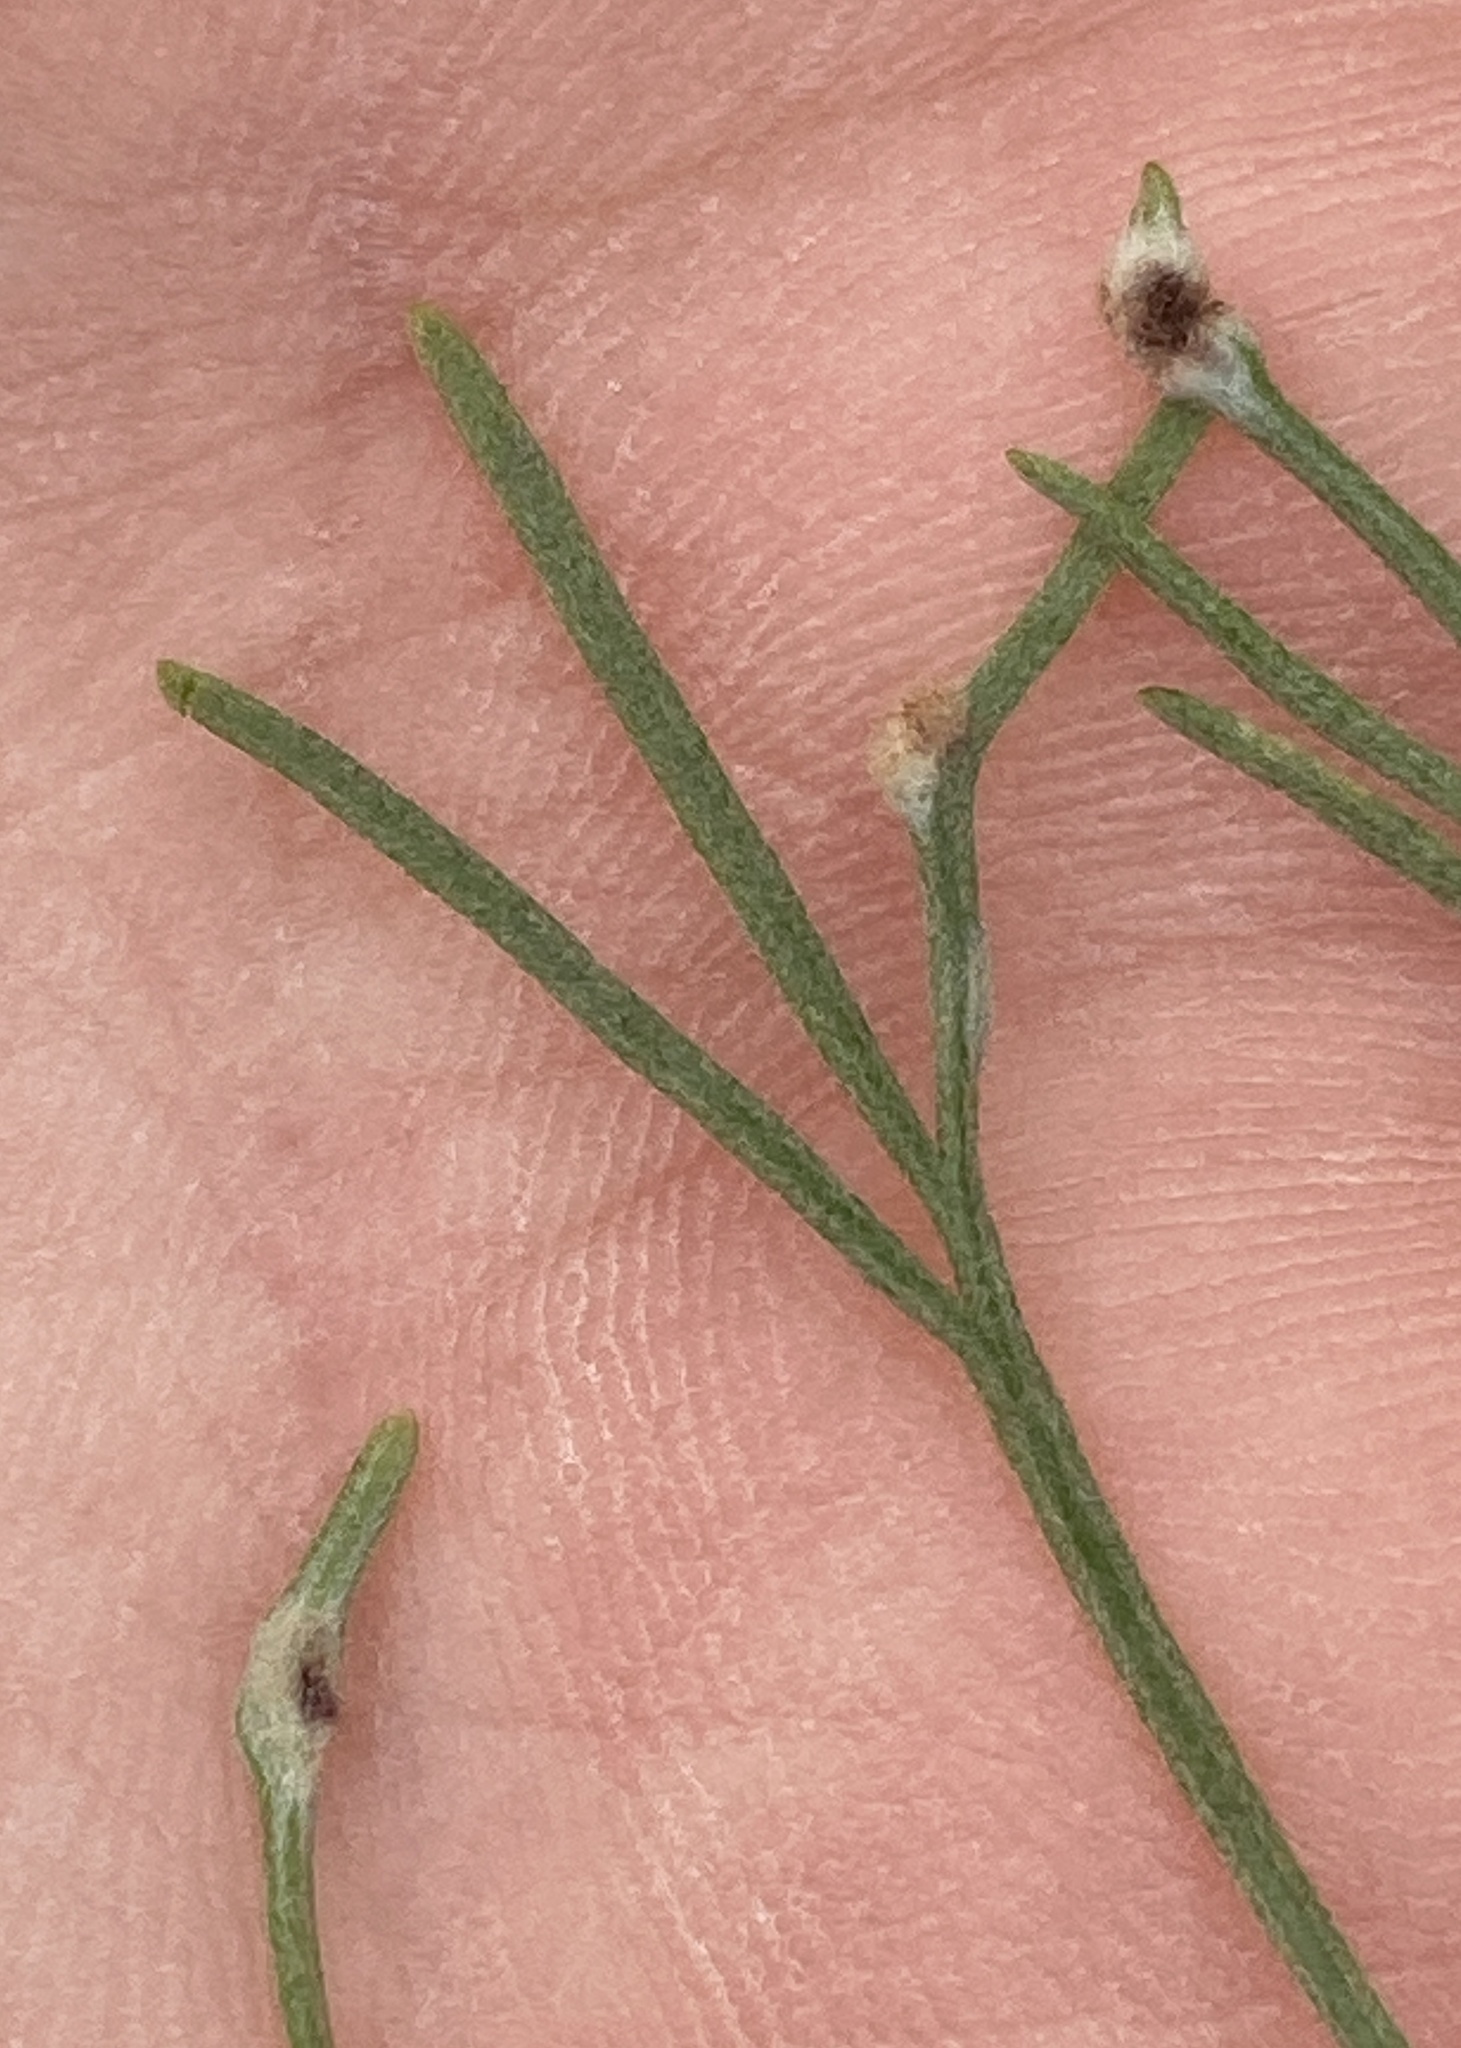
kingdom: Animalia
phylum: Arthropoda
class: Arachnida
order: Trombidiformes
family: Eriophyidae
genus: Aceria
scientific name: Aceria
